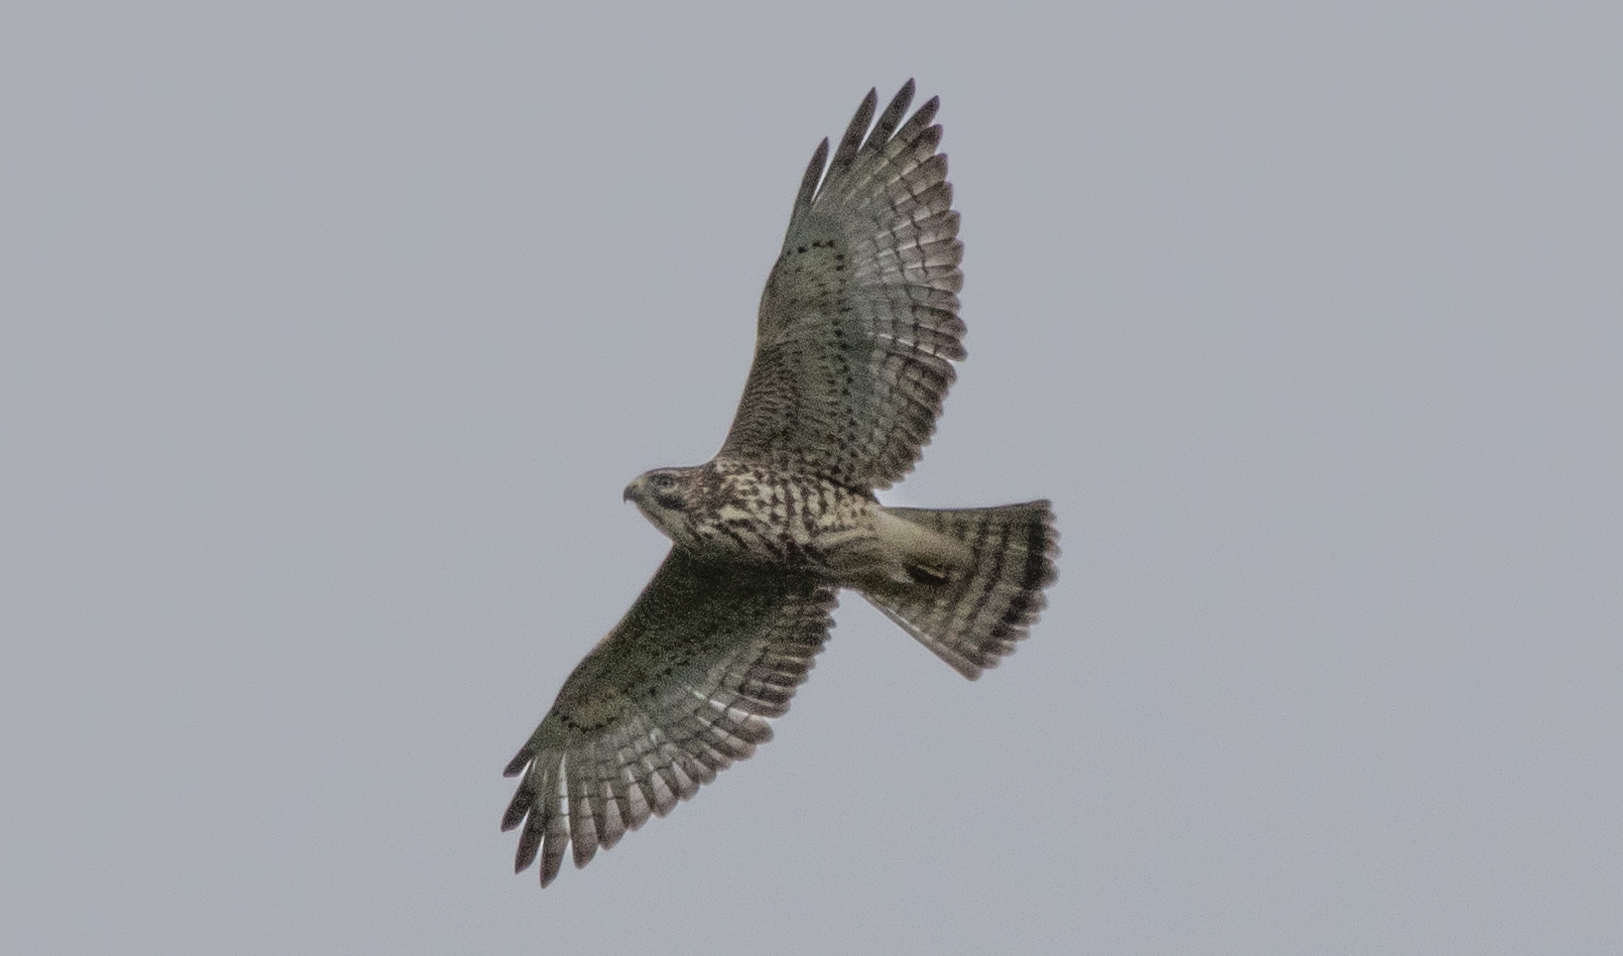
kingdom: Animalia
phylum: Chordata
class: Aves
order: Accipitriformes
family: Accipitridae
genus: Buteo
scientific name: Buteo platypterus
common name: Broad-winged hawk
